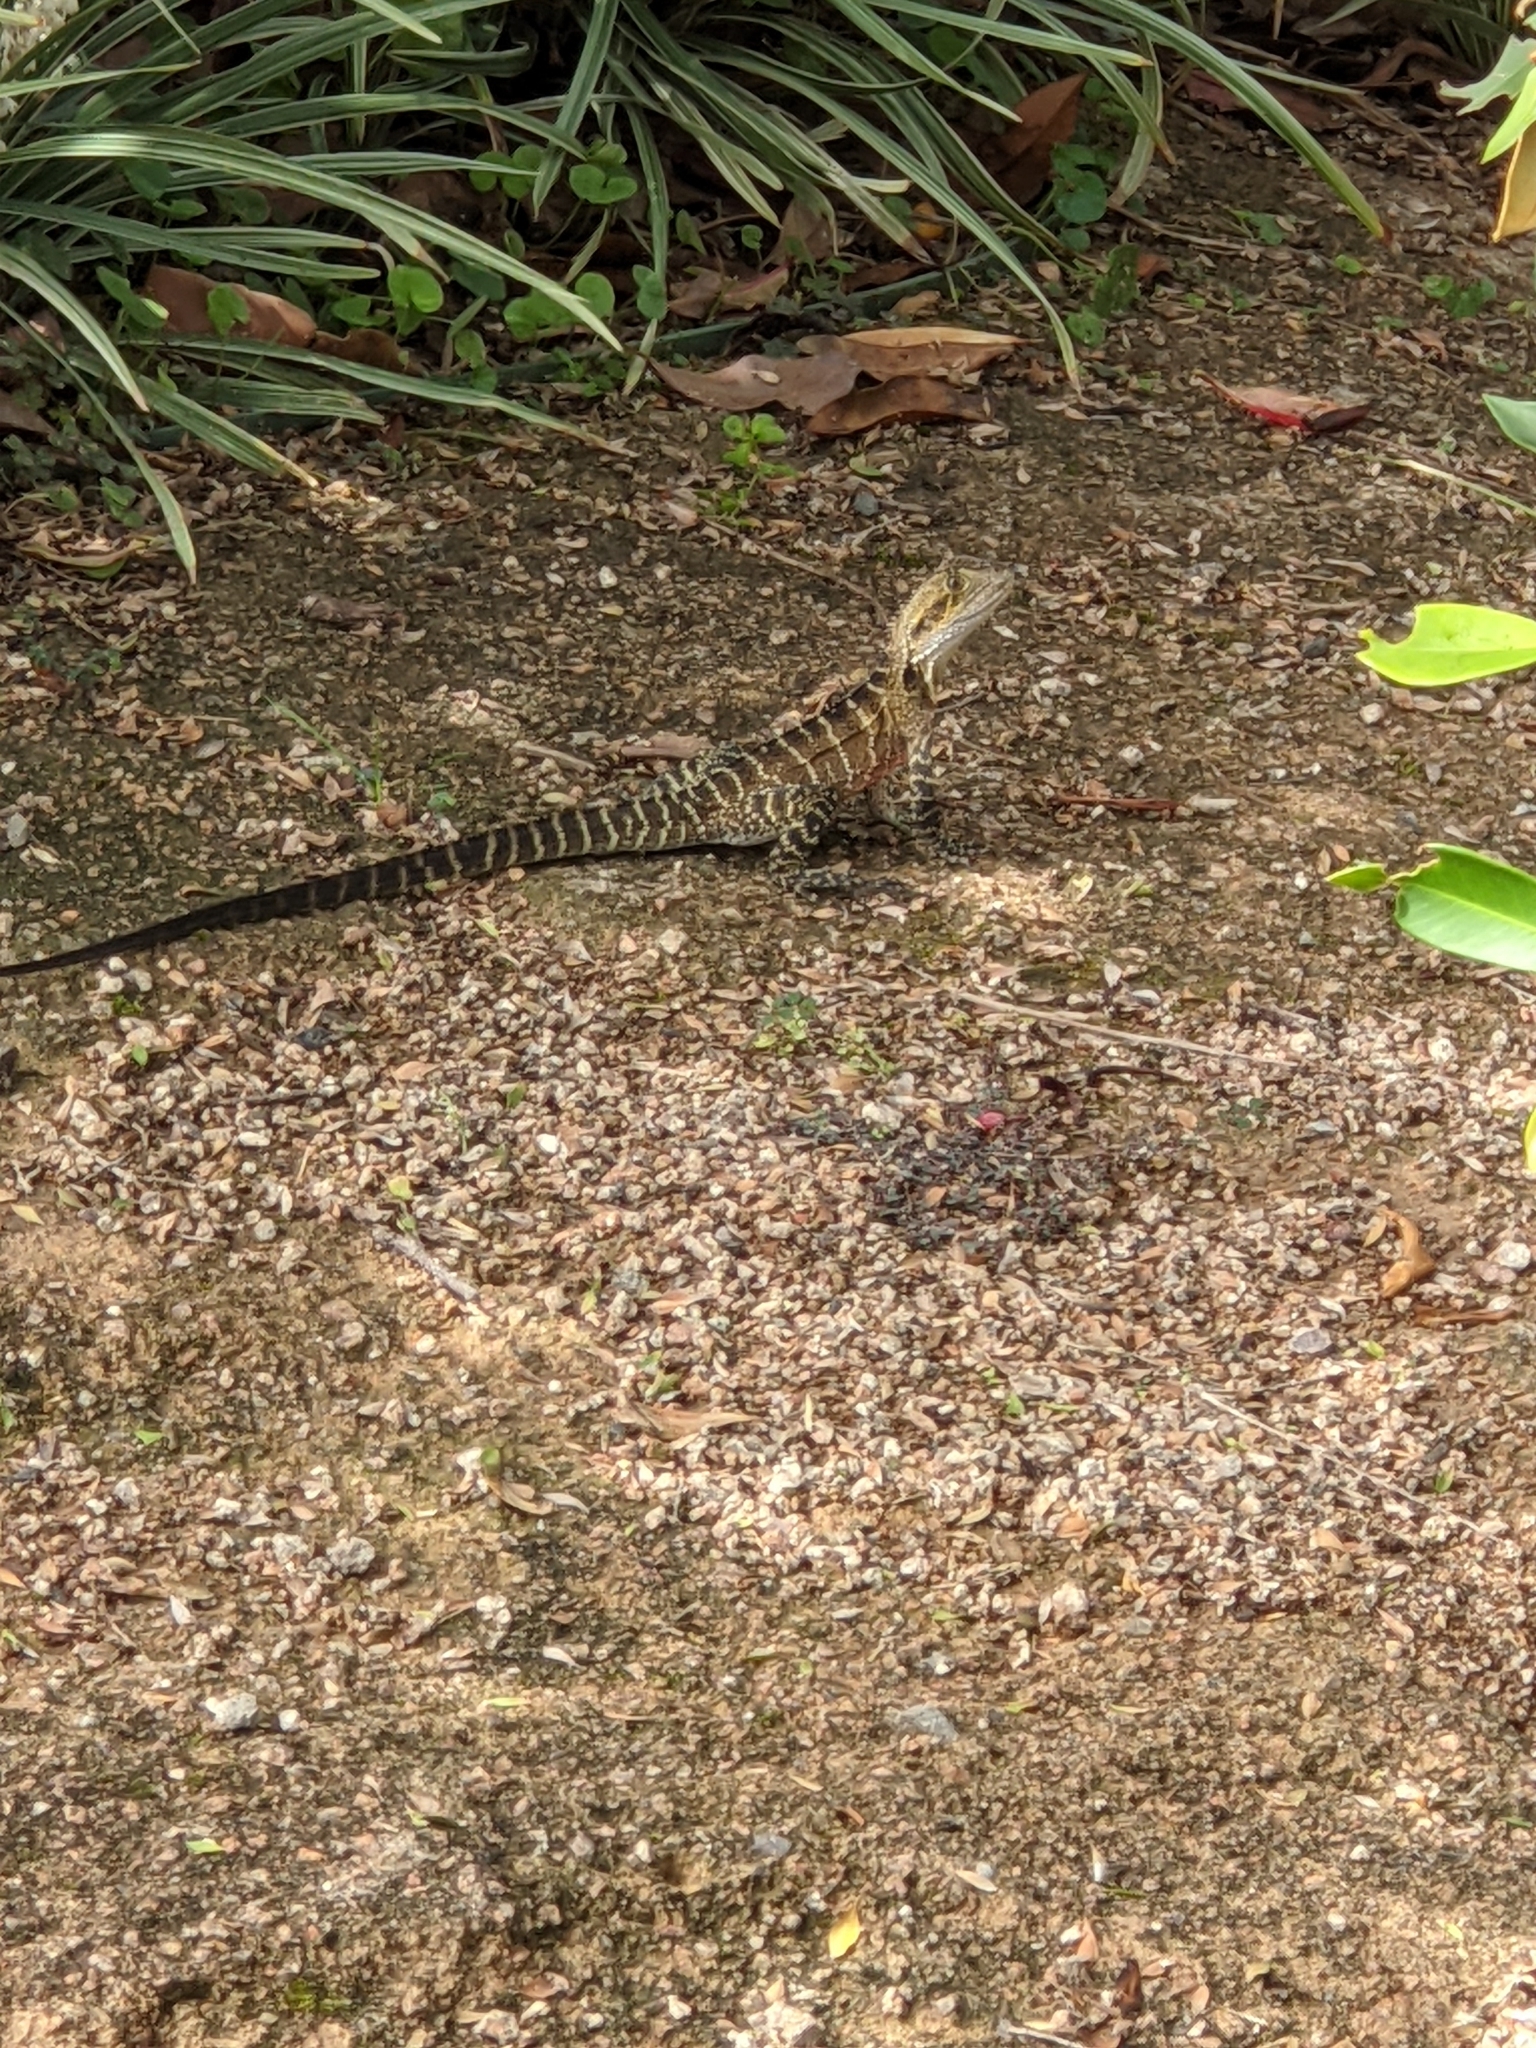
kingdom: Animalia
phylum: Chordata
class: Squamata
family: Agamidae
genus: Intellagama
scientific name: Intellagama lesueurii
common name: Eastern water dragon
